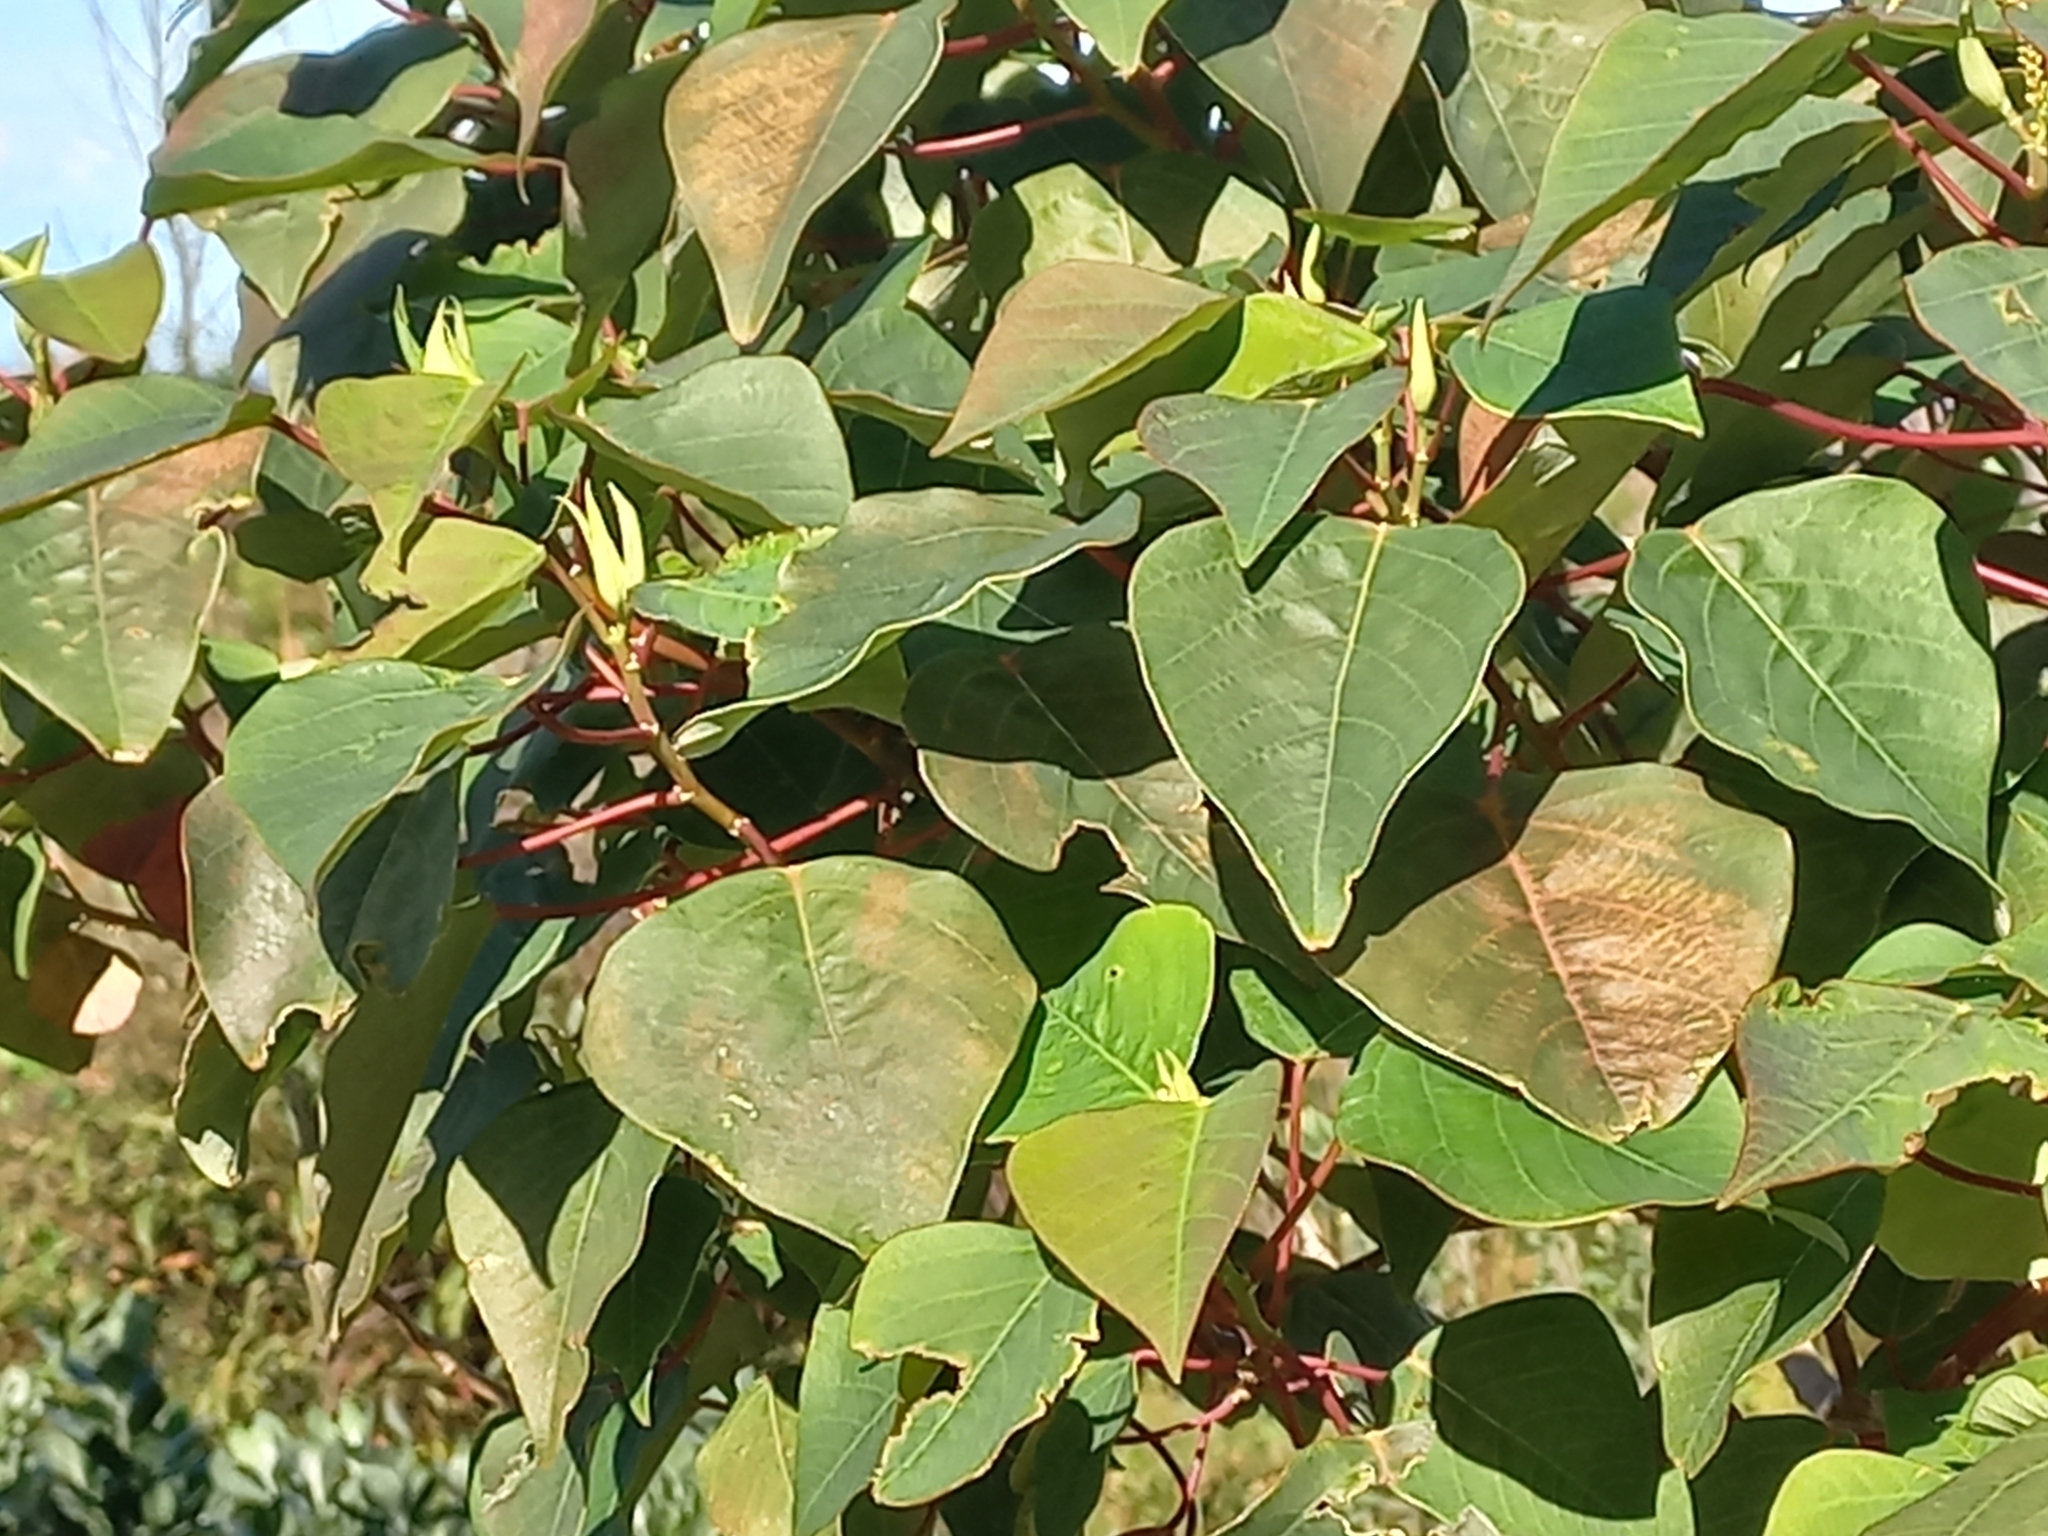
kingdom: Plantae
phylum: Tracheophyta
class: Magnoliopsida
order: Malpighiales
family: Euphorbiaceae
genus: Homalanthus
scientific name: Homalanthus populifolius
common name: Queensland poplar
